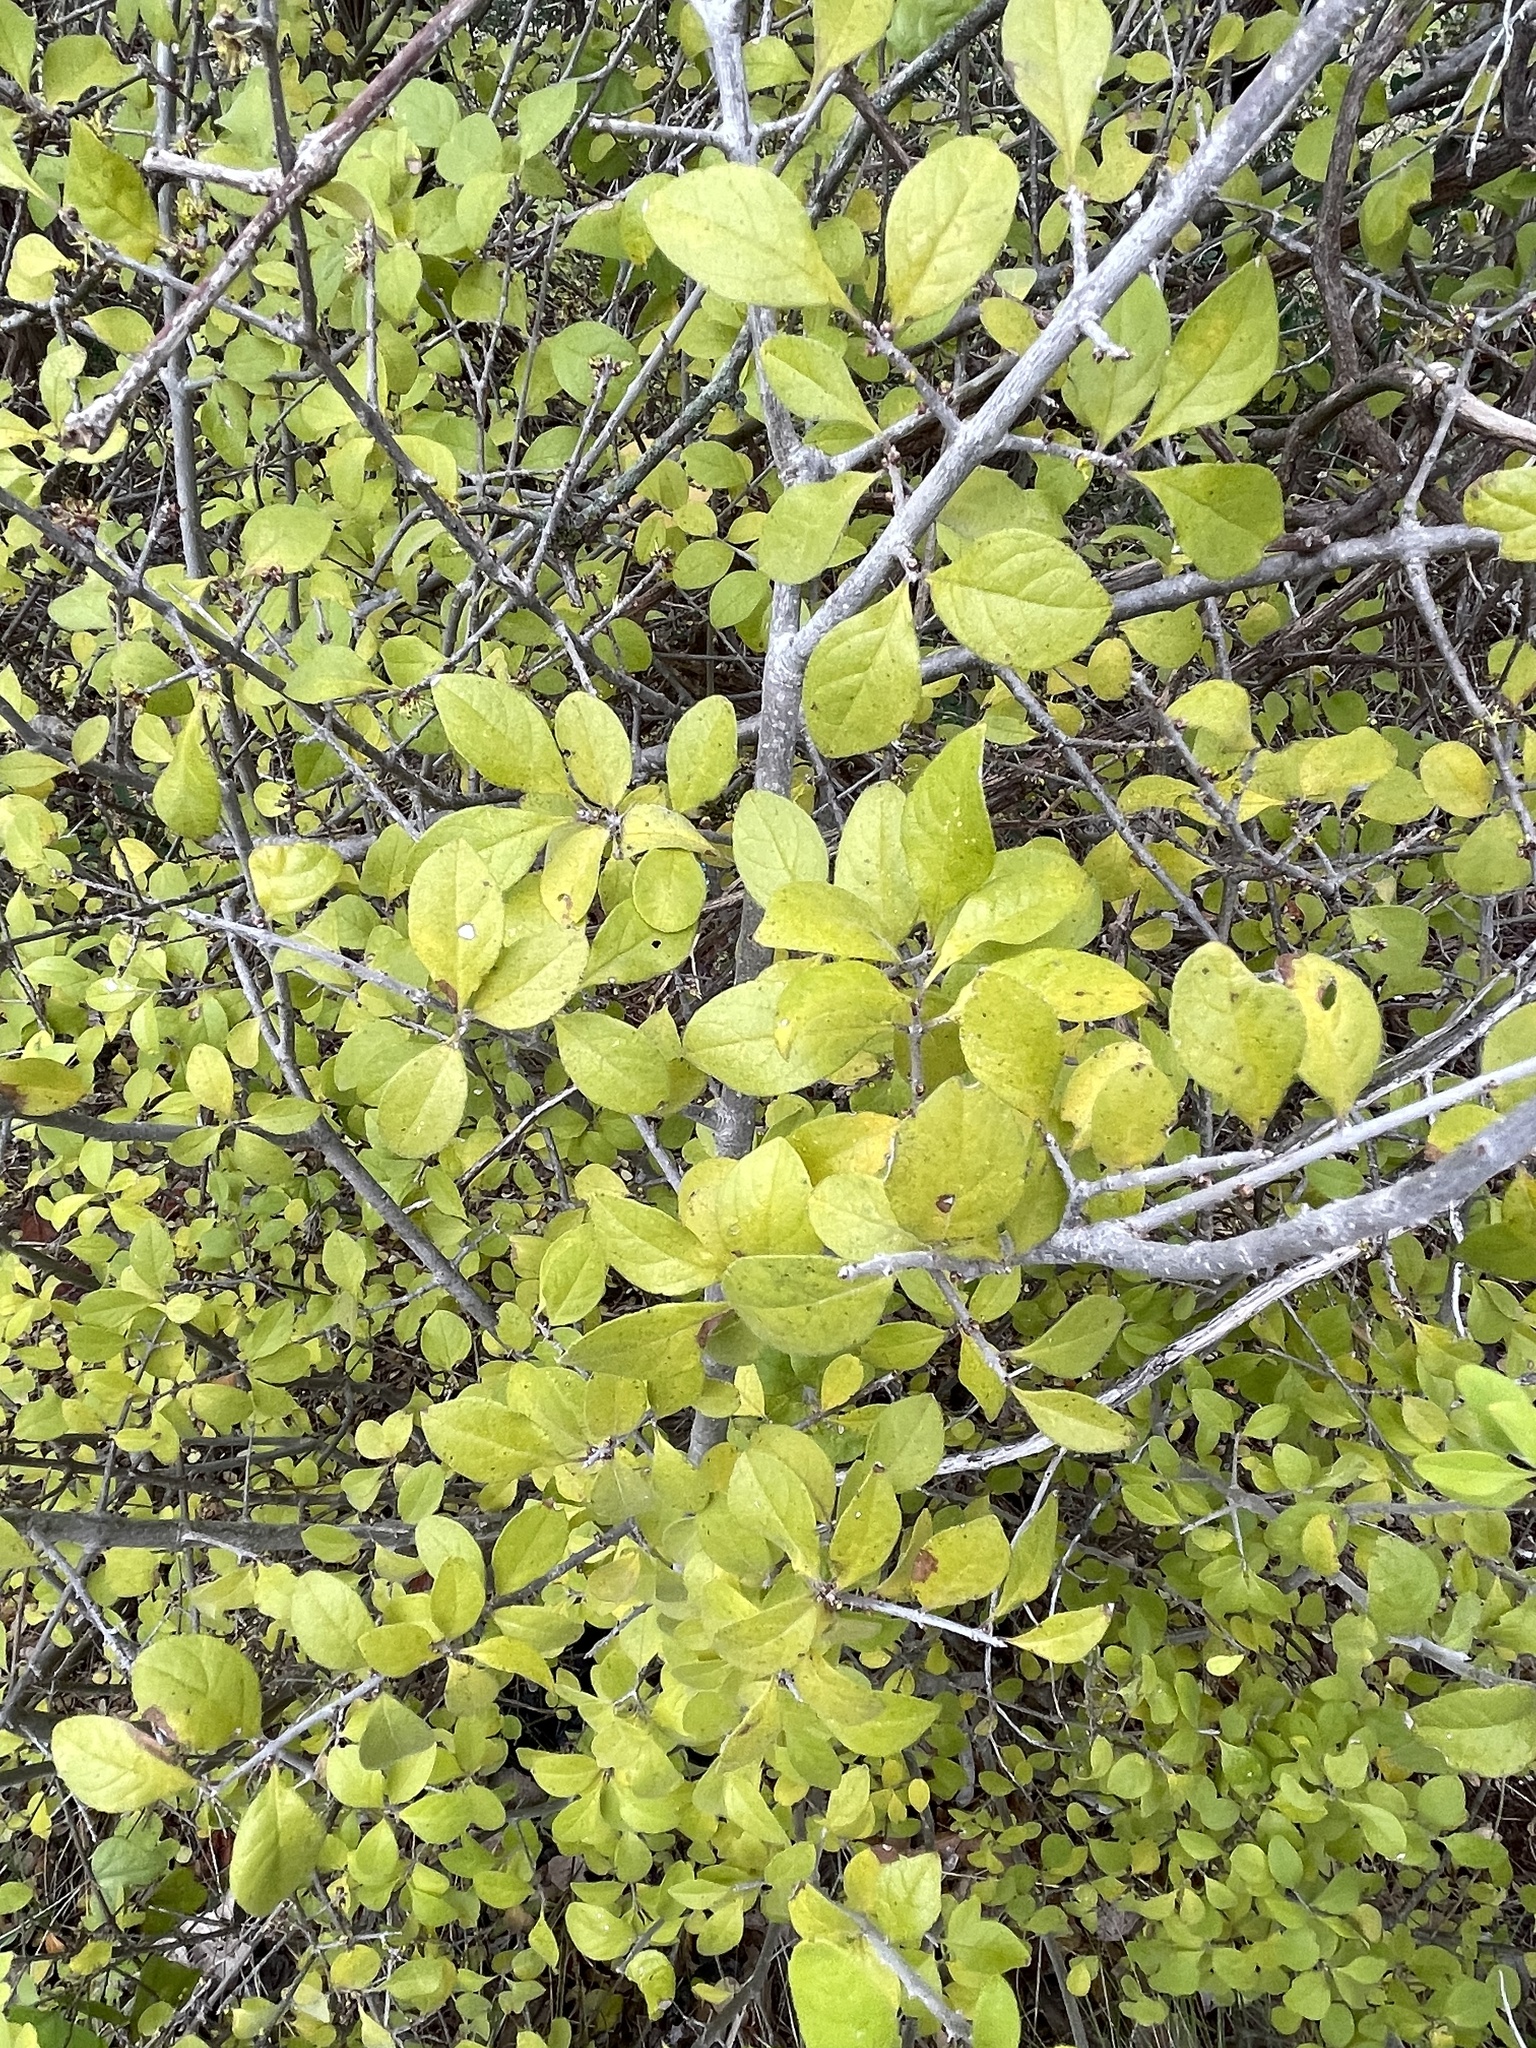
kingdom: Plantae
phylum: Tracheophyta
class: Magnoliopsida
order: Lamiales
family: Oleaceae
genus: Forestiera
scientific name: Forestiera pubescens
